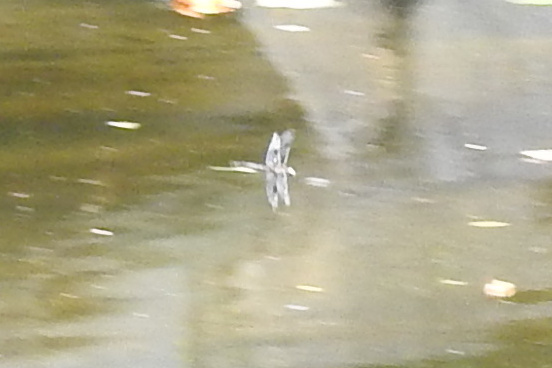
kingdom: Animalia
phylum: Arthropoda
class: Insecta
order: Odonata
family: Corduliidae
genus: Epitheca
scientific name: Epitheca princeps
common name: Prince baskettail
